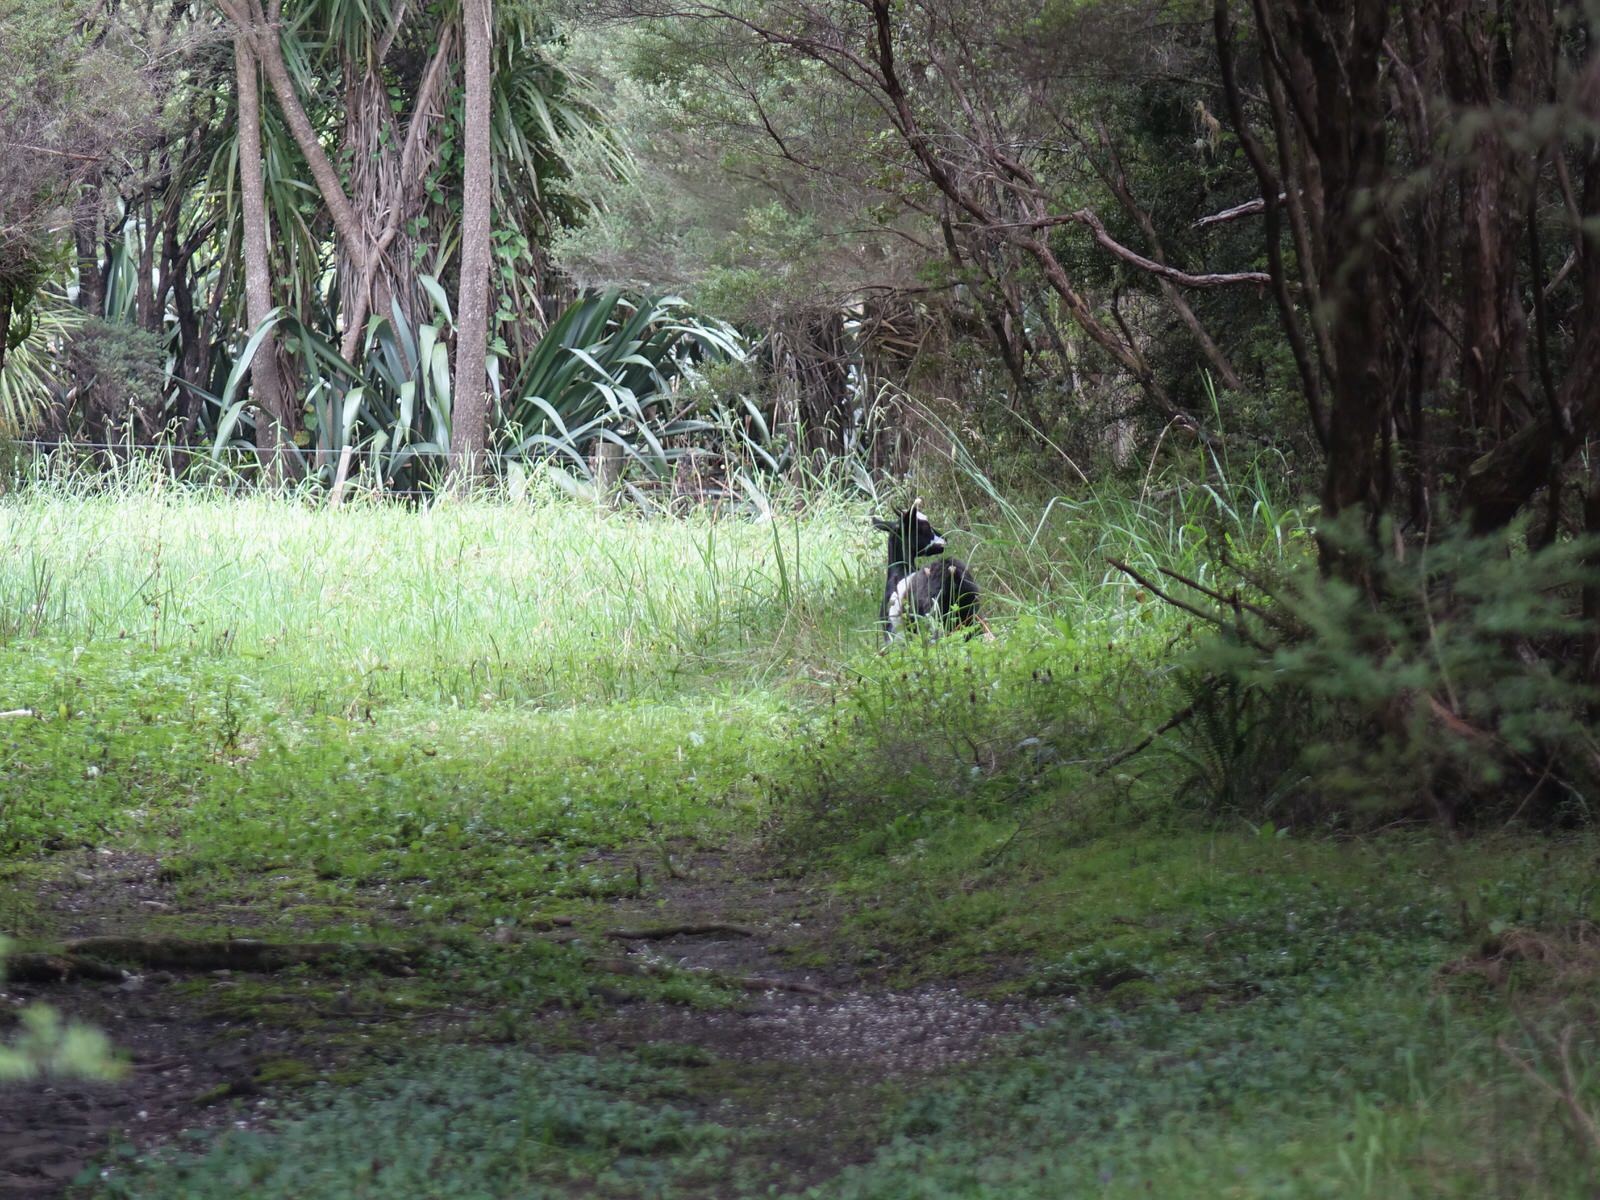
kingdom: Animalia
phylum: Chordata
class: Mammalia
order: Artiodactyla
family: Bovidae
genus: Capra
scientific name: Capra hircus
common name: Domestic goat
